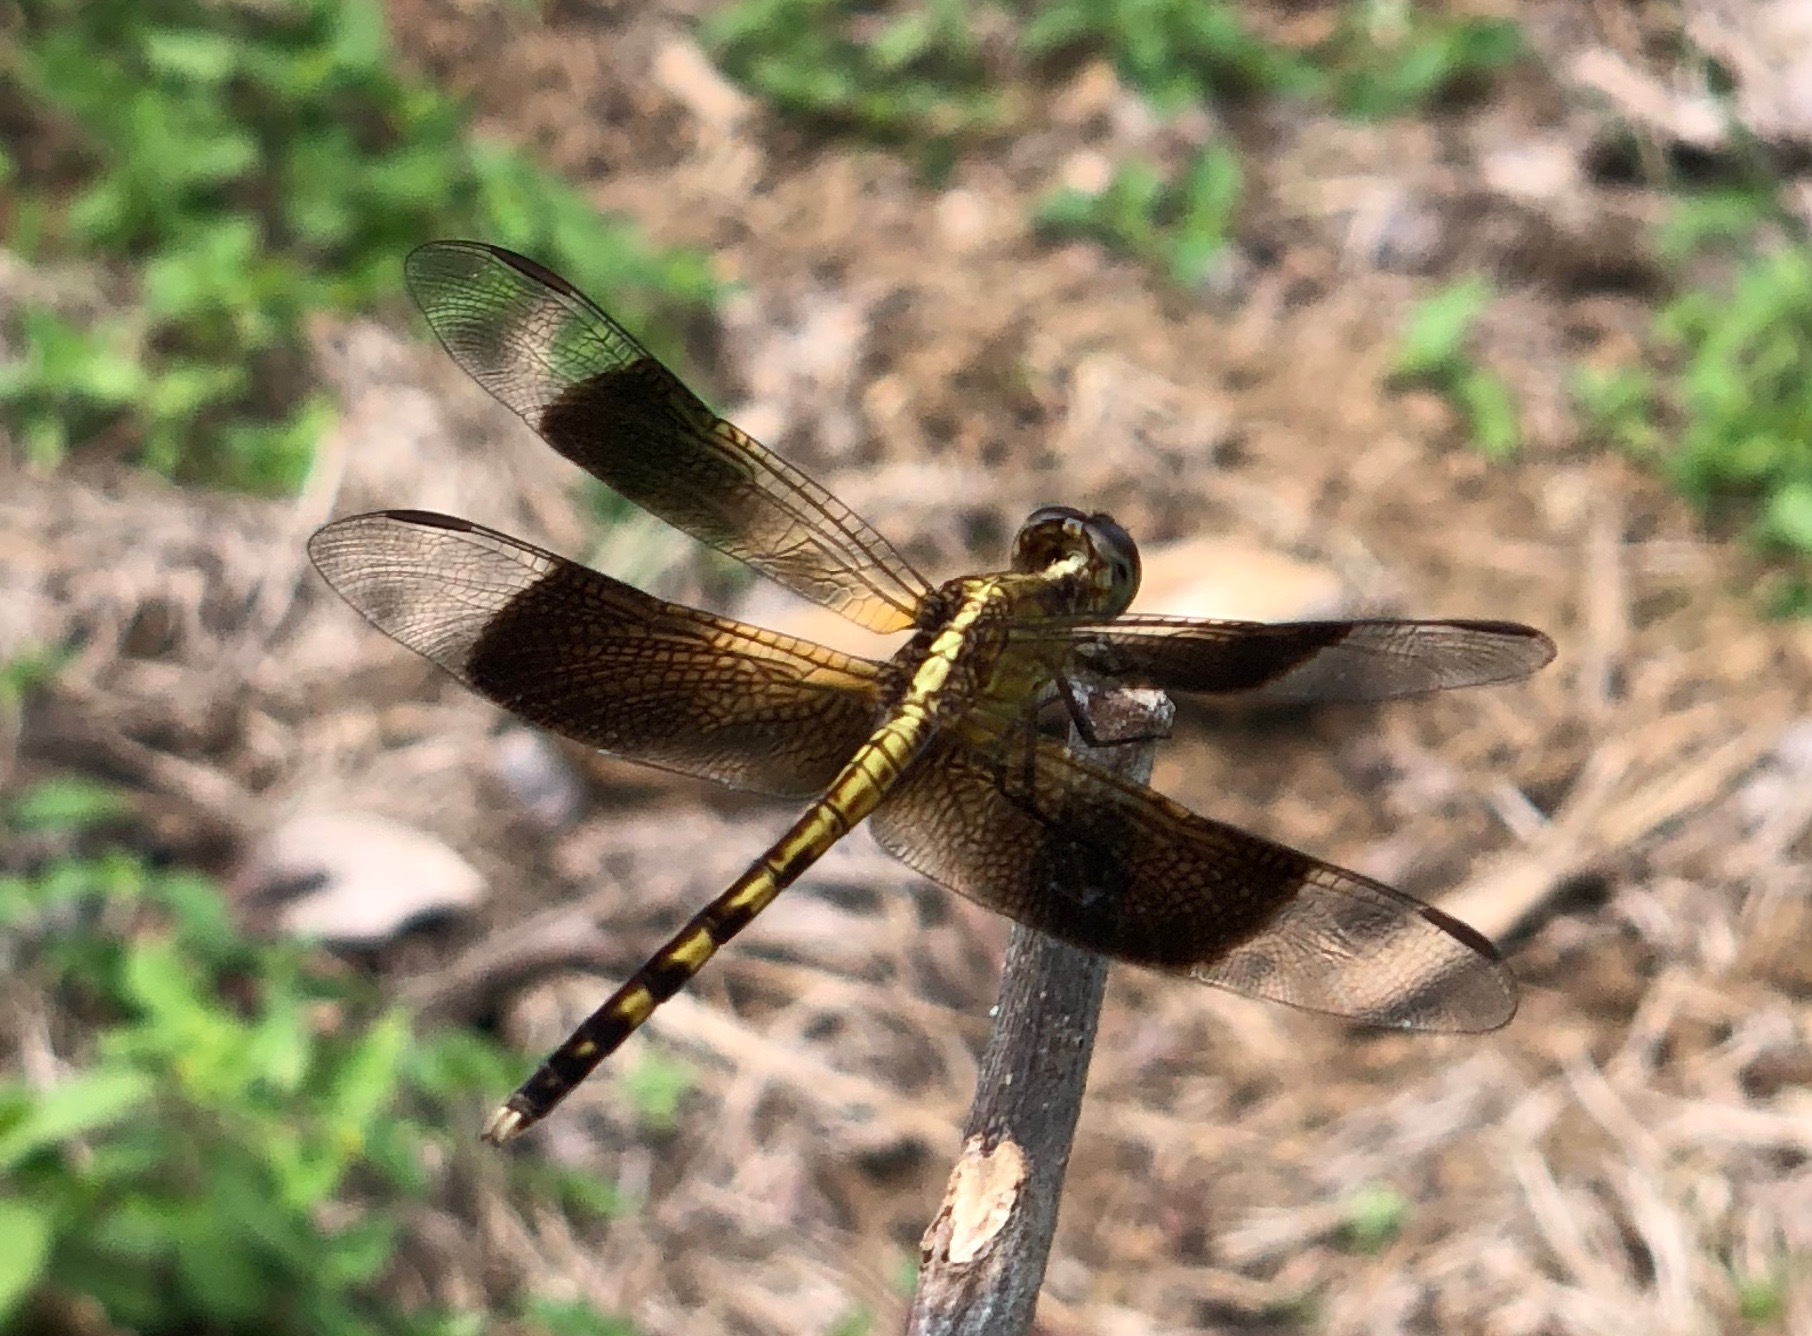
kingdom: Animalia
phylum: Arthropoda
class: Insecta
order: Odonata
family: Libellulidae
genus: Erythrodiplax
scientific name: Erythrodiplax funerea
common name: Black-winged dragonlet
